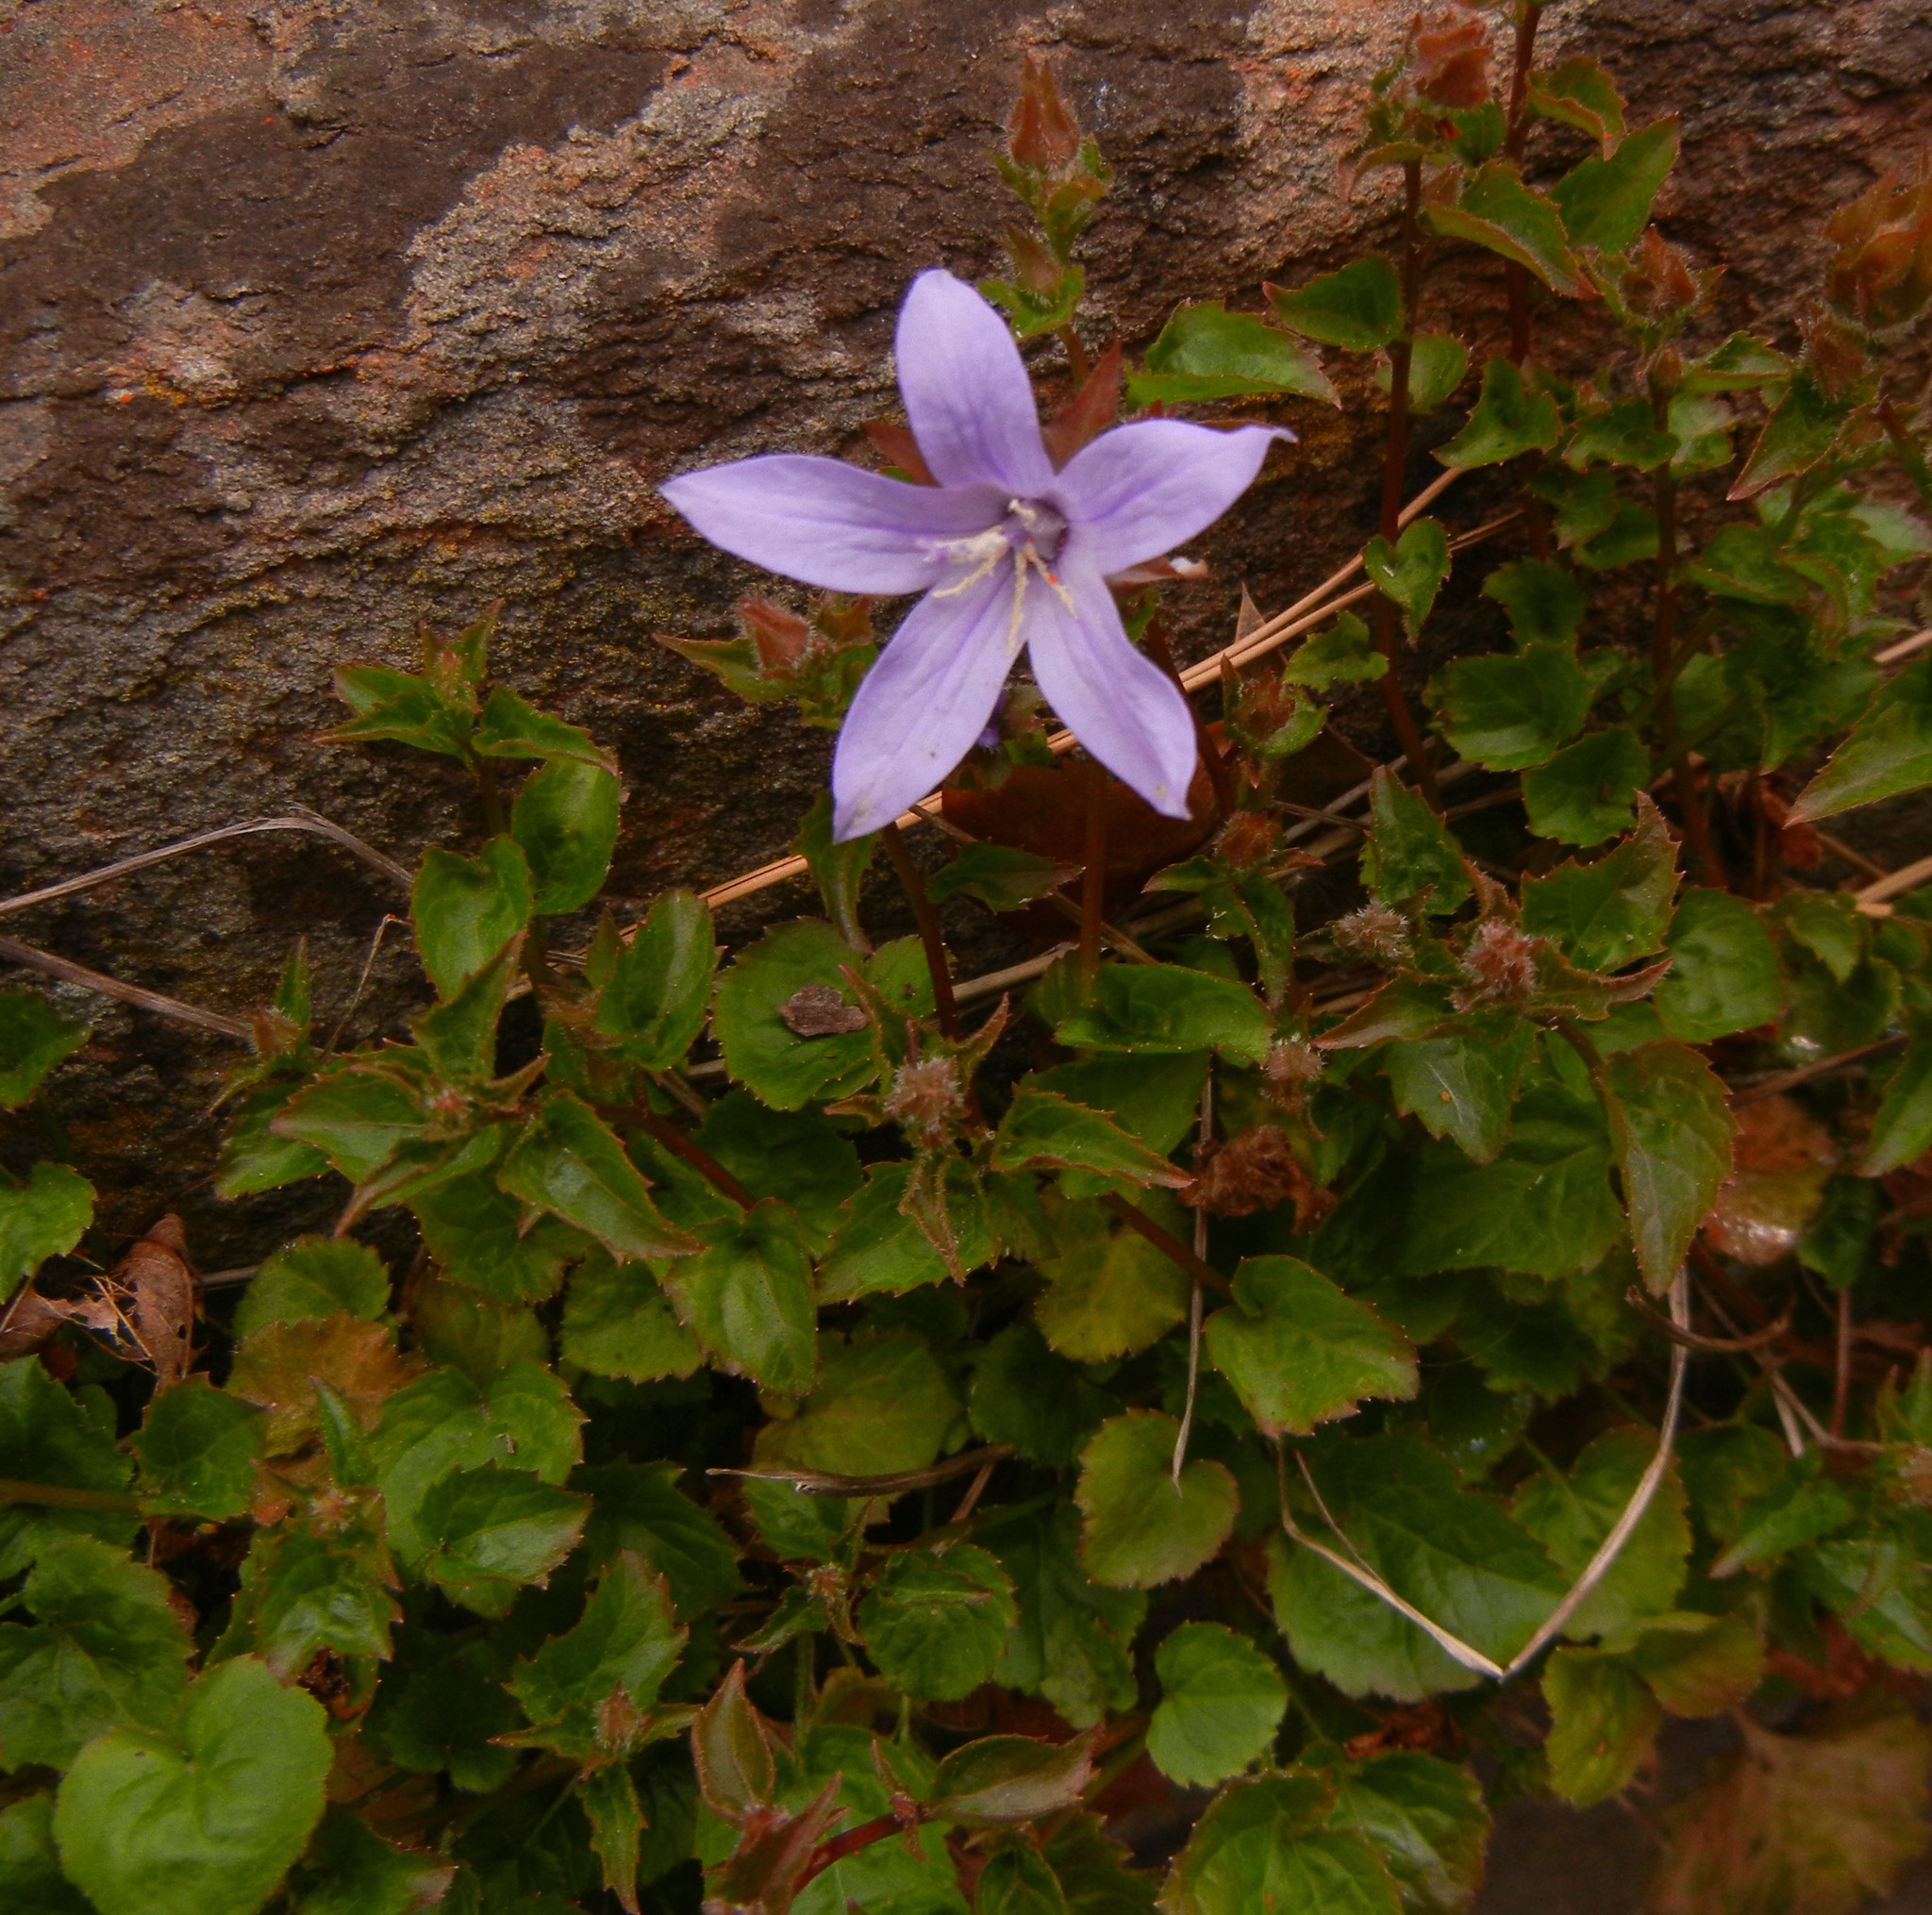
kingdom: Plantae
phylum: Tracheophyta
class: Magnoliopsida
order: Asterales
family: Campanulaceae
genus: Campanula
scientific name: Campanula poscharskyana
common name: Trailing bellflower
